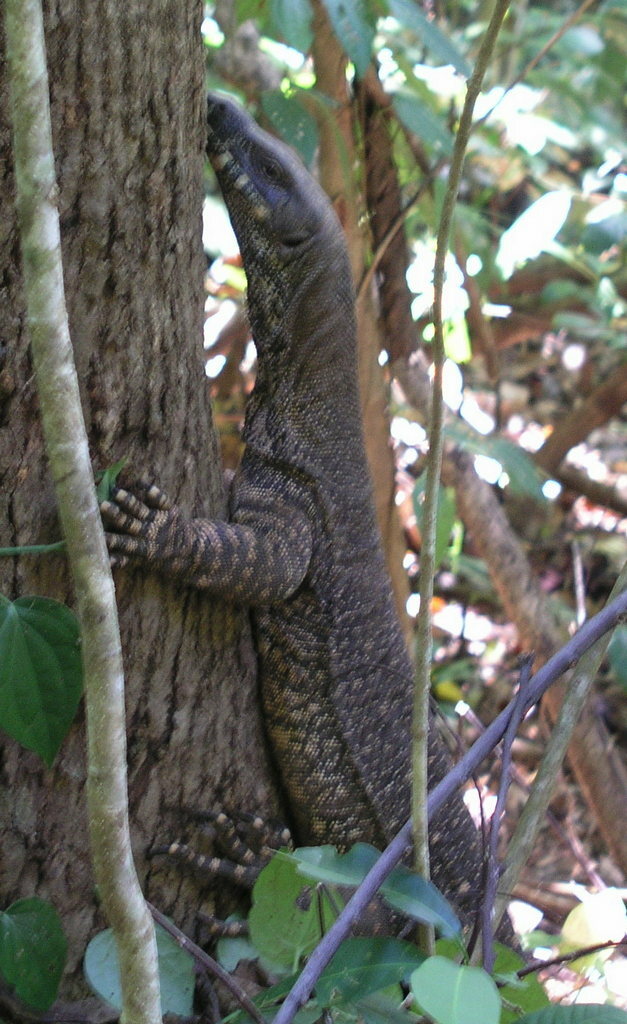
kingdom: Animalia
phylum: Chordata
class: Squamata
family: Varanidae
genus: Varanus
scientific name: Varanus varius
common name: Lace monitor
